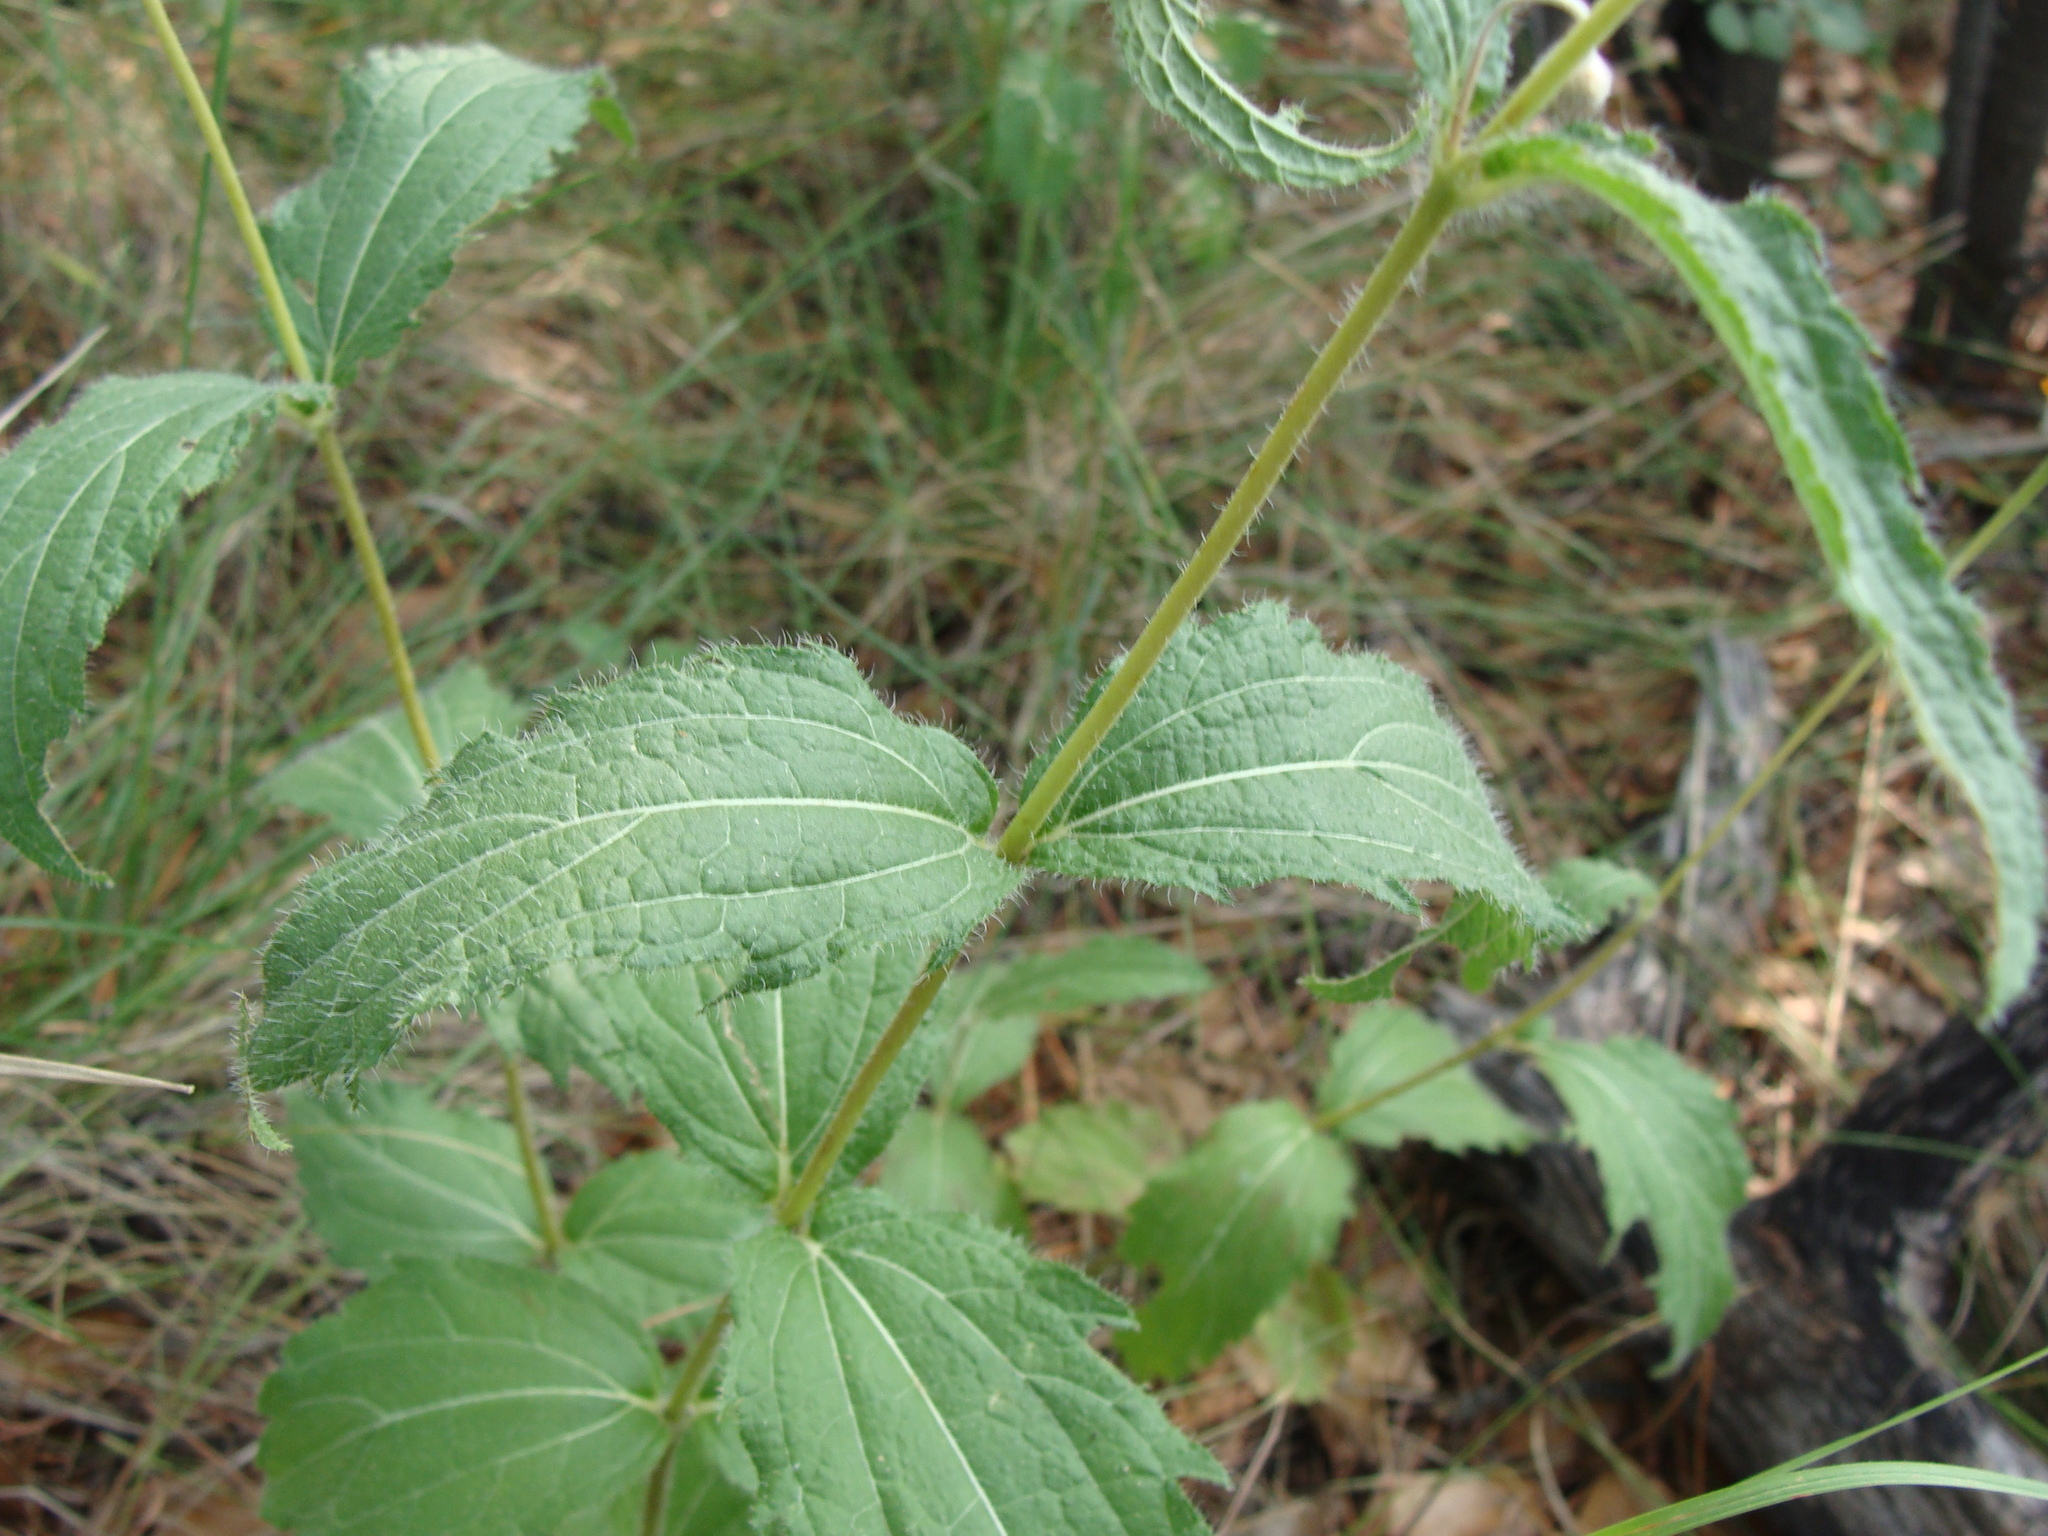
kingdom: Plantae
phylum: Tracheophyta
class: Magnoliopsida
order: Asterales
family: Asteraceae
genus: Lasianthaea
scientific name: Lasianthaea podocephala
